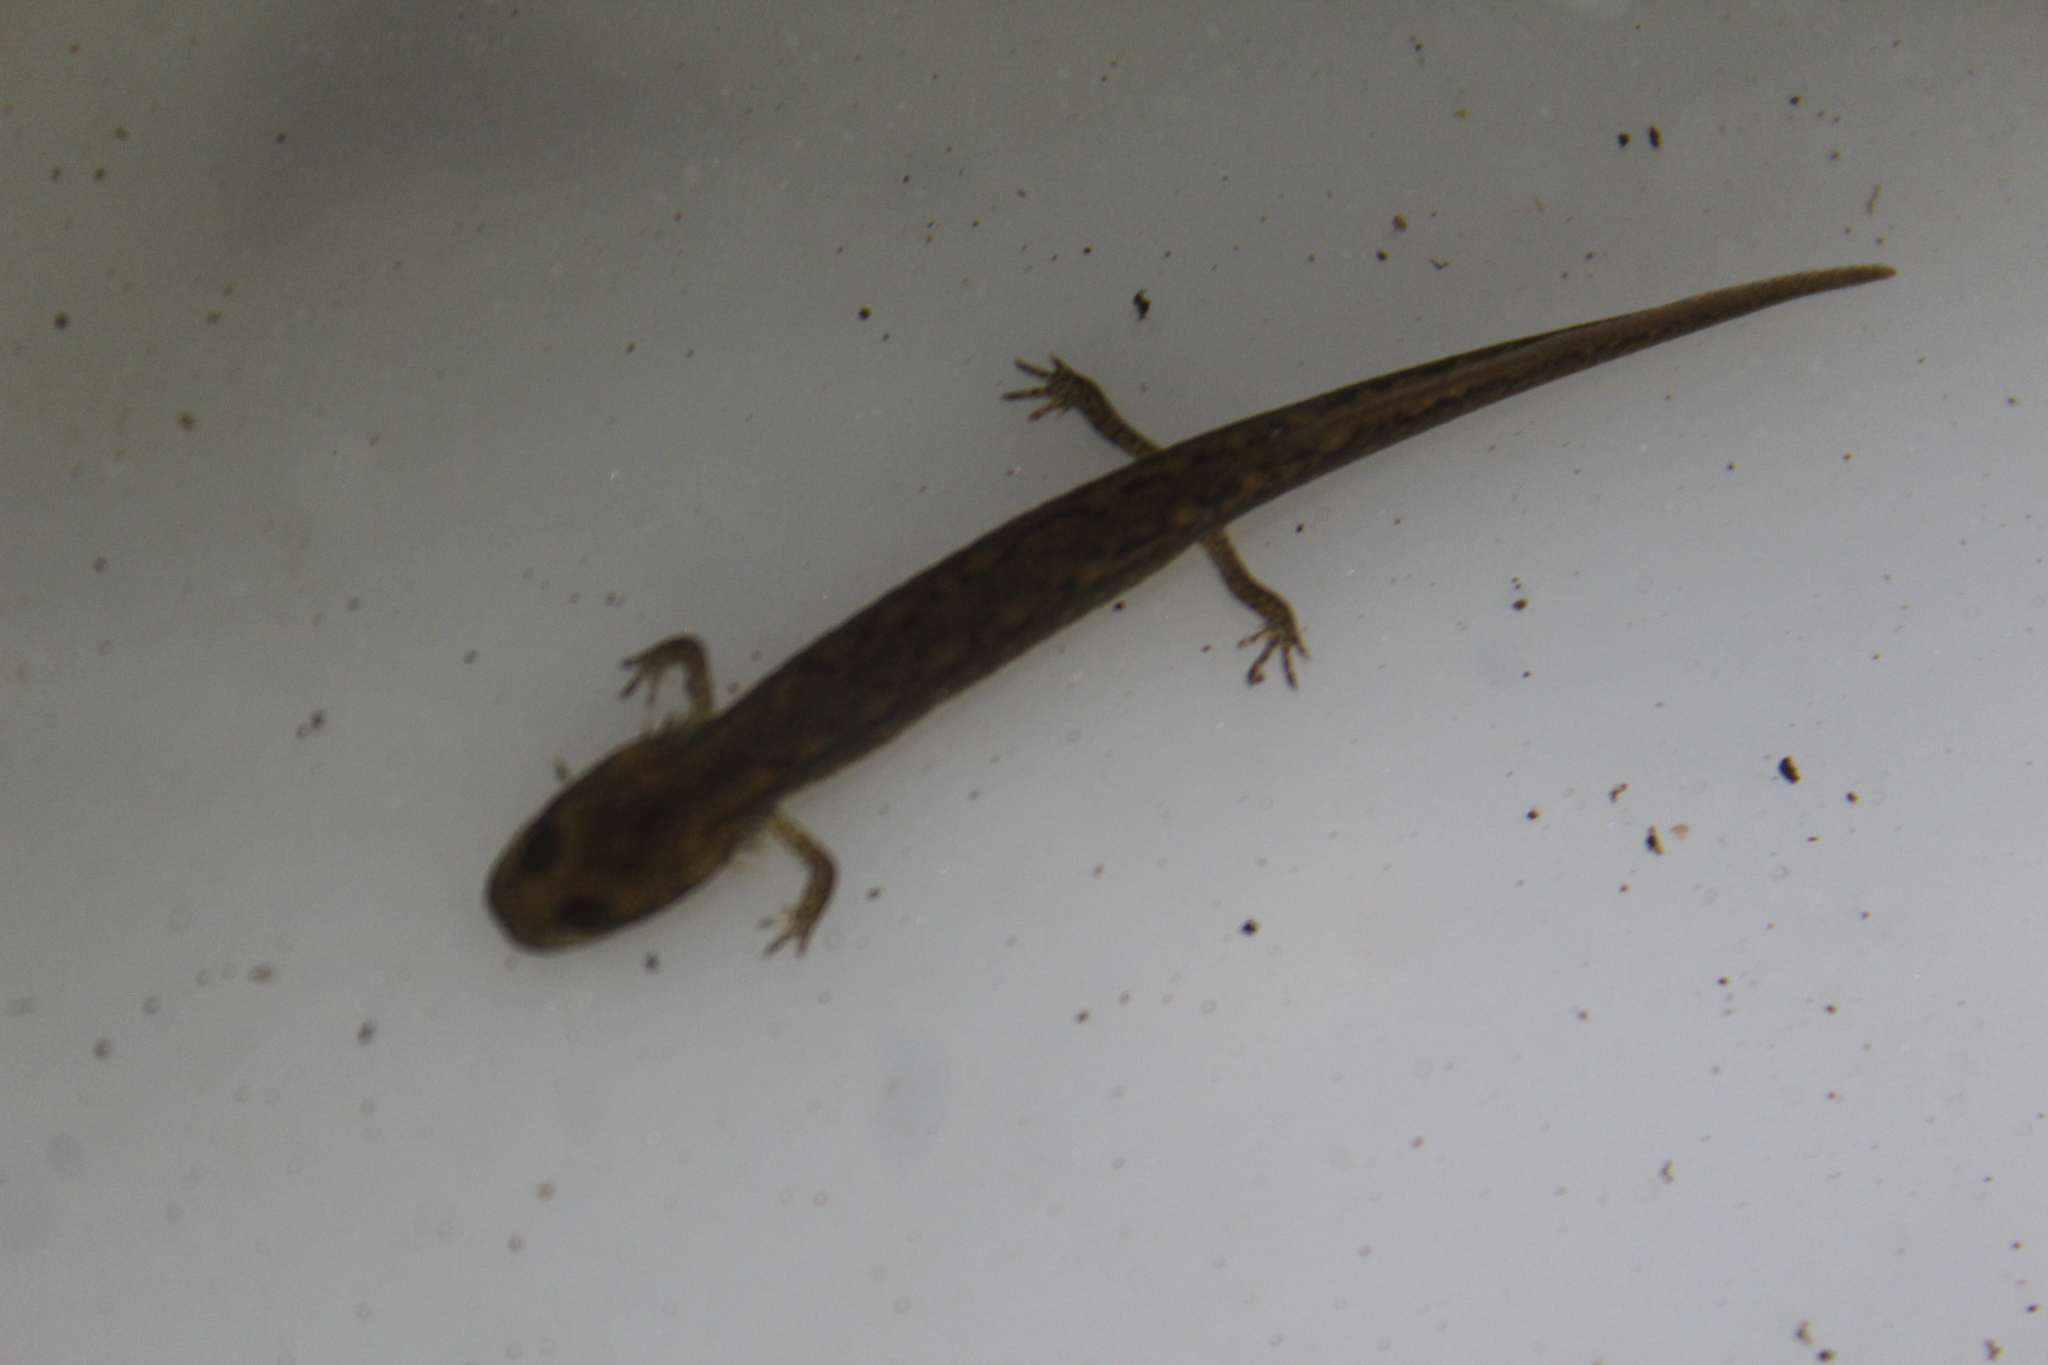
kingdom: Animalia
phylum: Chordata
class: Amphibia
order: Caudata
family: Plethodontidae
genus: Eurycea
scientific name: Eurycea bislineata
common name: Northern two-lined salamander
